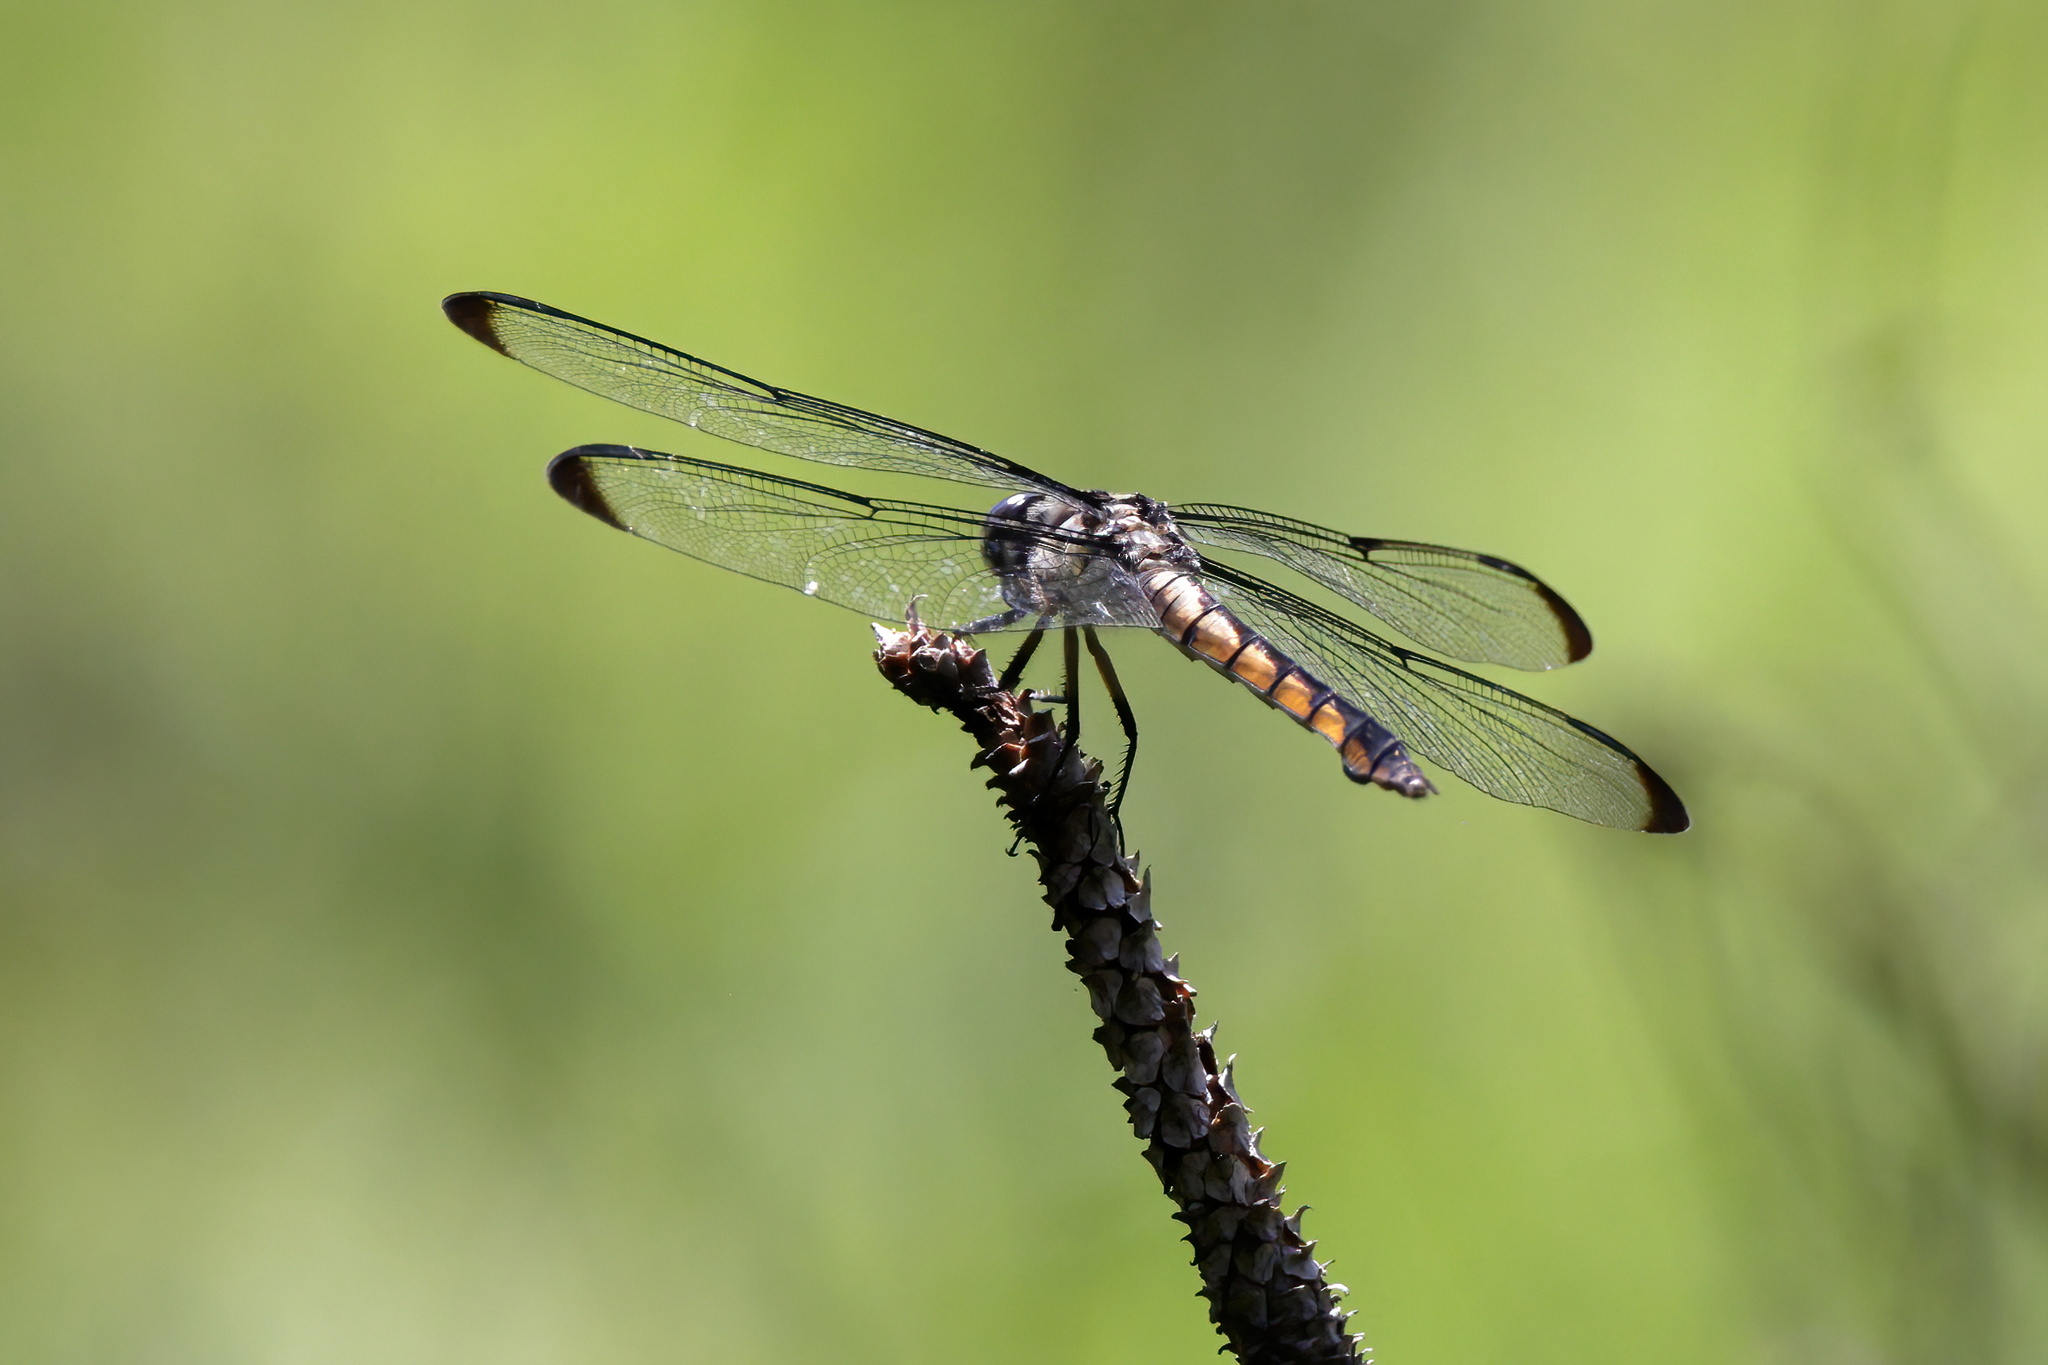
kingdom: Animalia
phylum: Arthropoda
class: Insecta
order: Odonata
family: Libellulidae
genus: Libellula
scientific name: Libellula incesta
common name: Slaty skimmer
